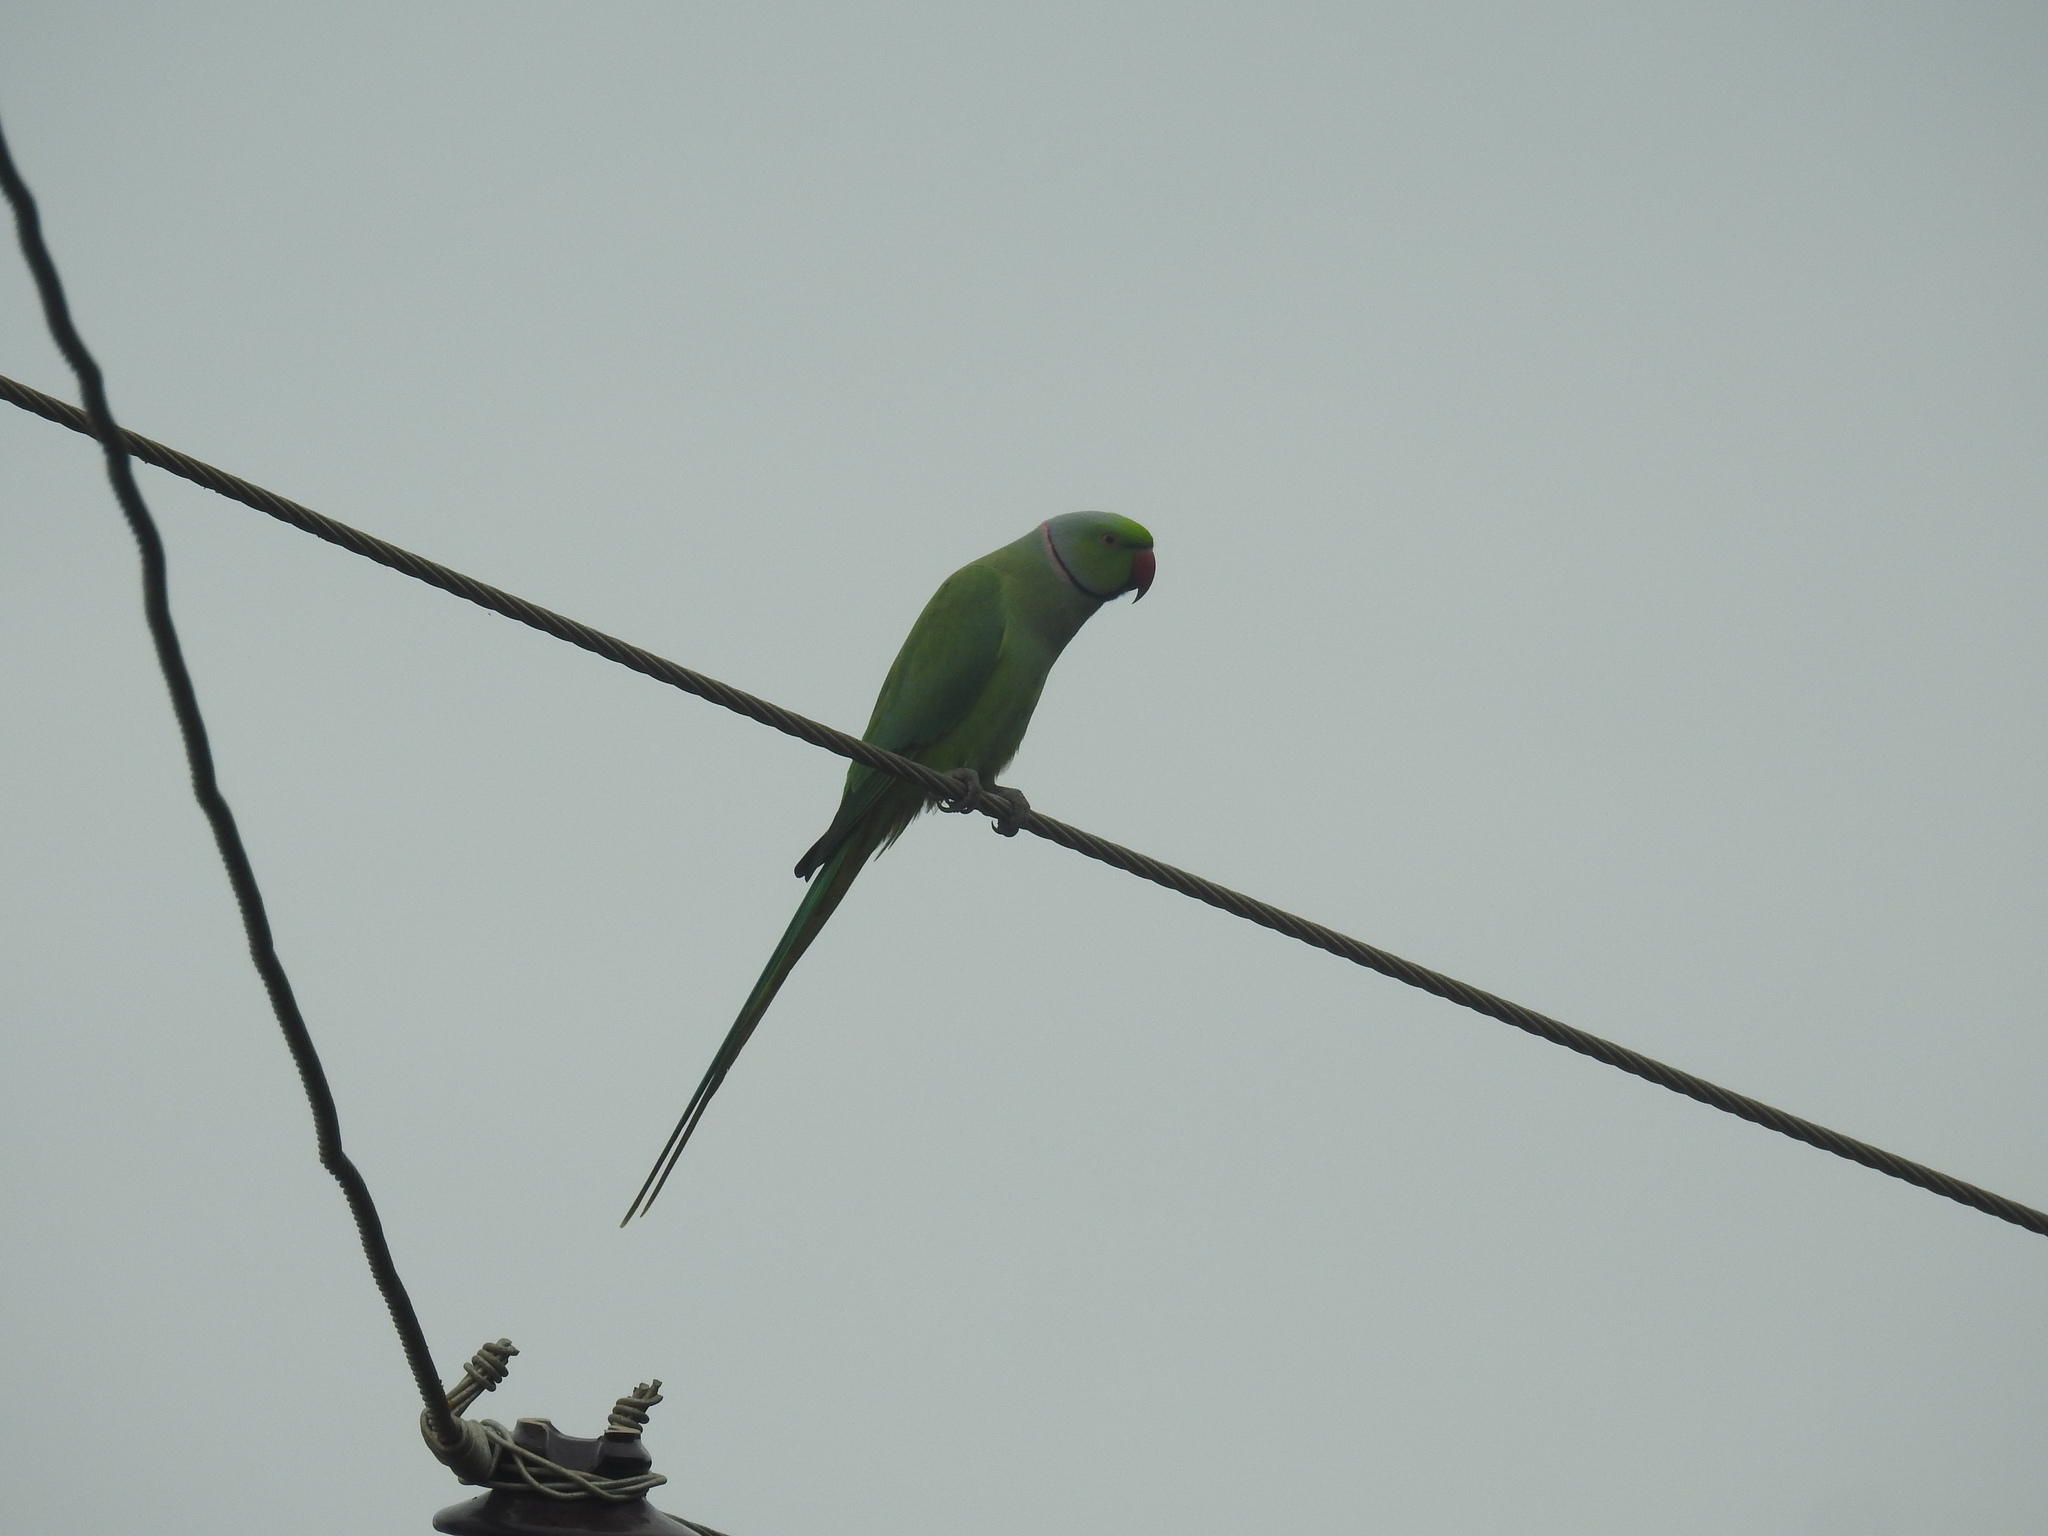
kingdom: Animalia
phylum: Chordata
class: Aves
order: Psittaciformes
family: Psittacidae
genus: Psittacula
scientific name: Psittacula krameri
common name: Rose-ringed parakeet
